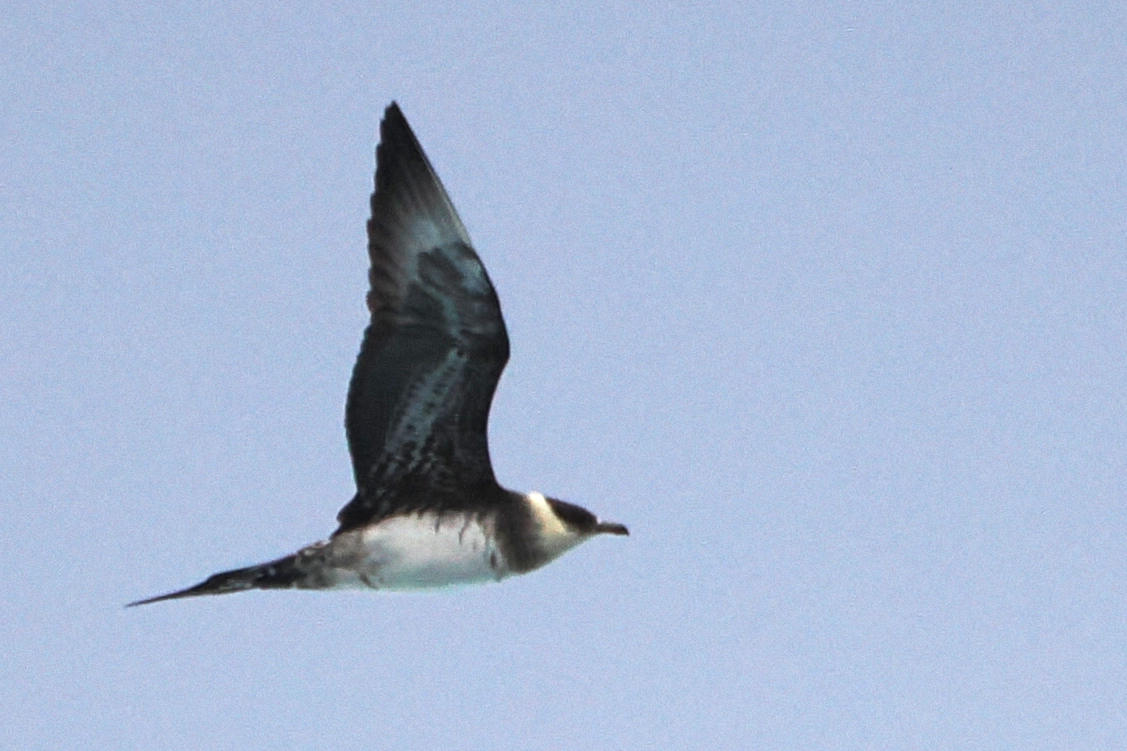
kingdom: Animalia
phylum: Chordata
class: Aves
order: Charadriiformes
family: Stercorariidae
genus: Stercorarius
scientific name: Stercorarius parasiticus
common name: Parasitic jaeger
